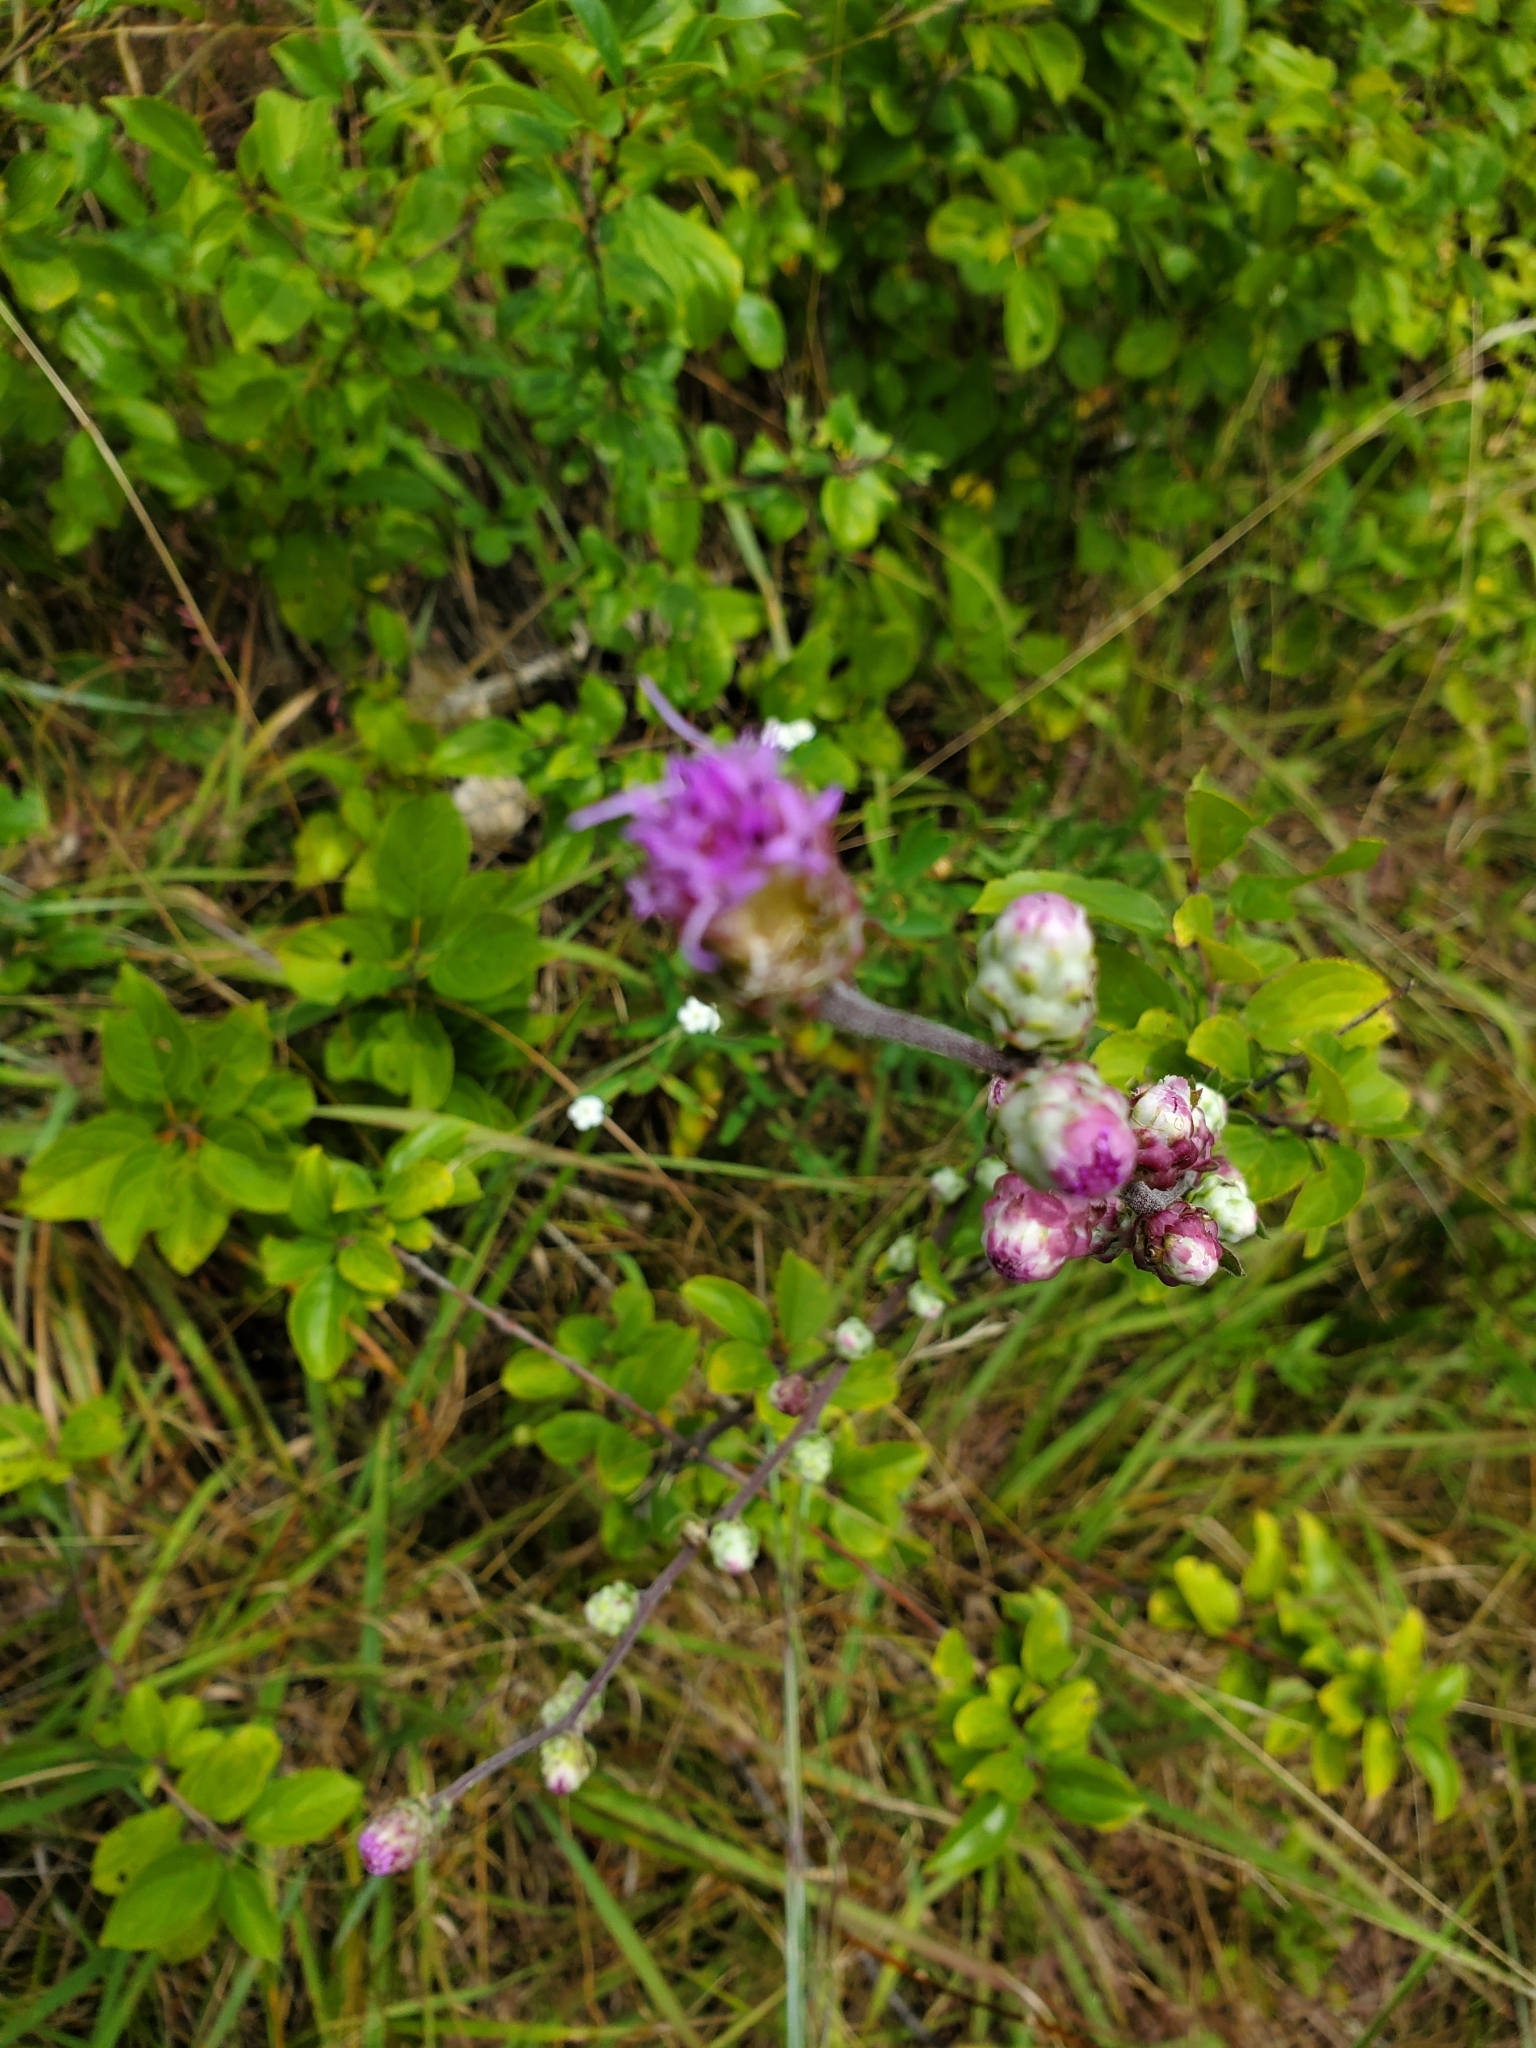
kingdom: Plantae
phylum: Tracheophyta
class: Magnoliopsida
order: Asterales
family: Asteraceae
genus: Liatris
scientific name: Liatris aspera
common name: Lacerate blazing-star
